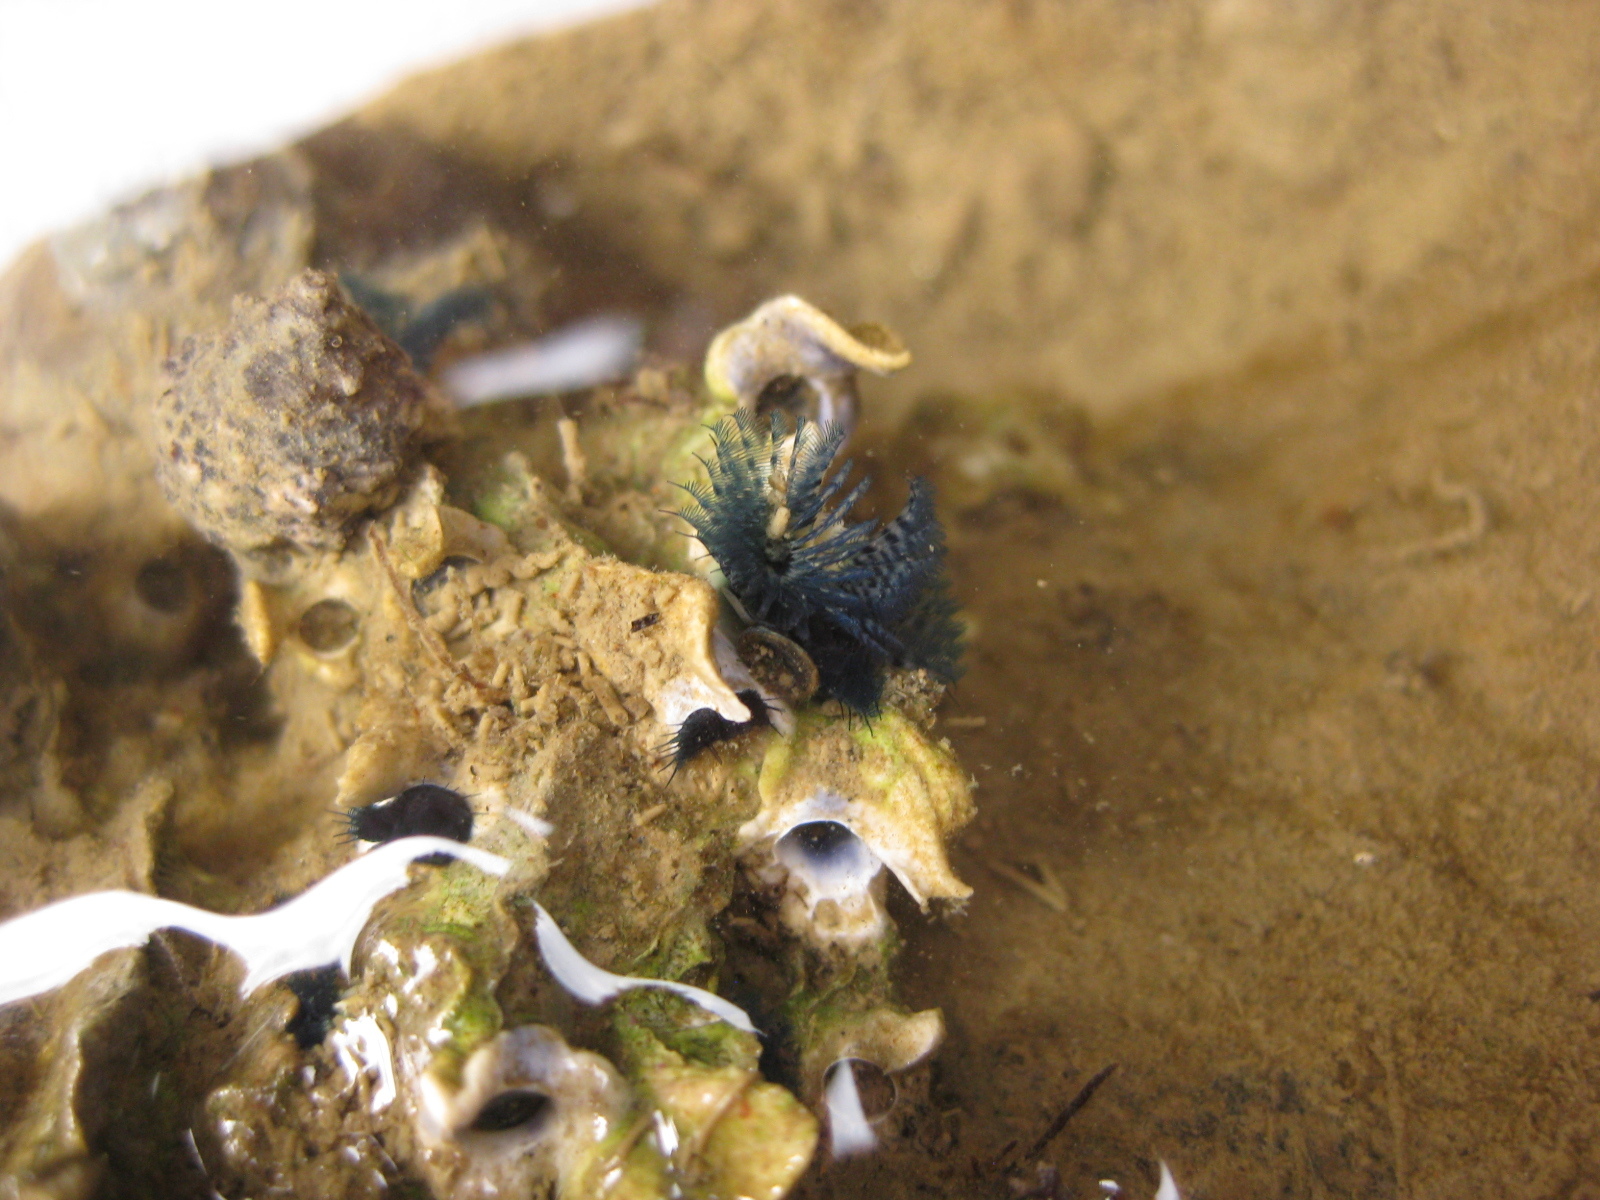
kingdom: Animalia
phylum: Annelida
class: Polychaeta
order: Sabellida
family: Serpulidae
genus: Spirobranchus
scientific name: Spirobranchus cariniferus
